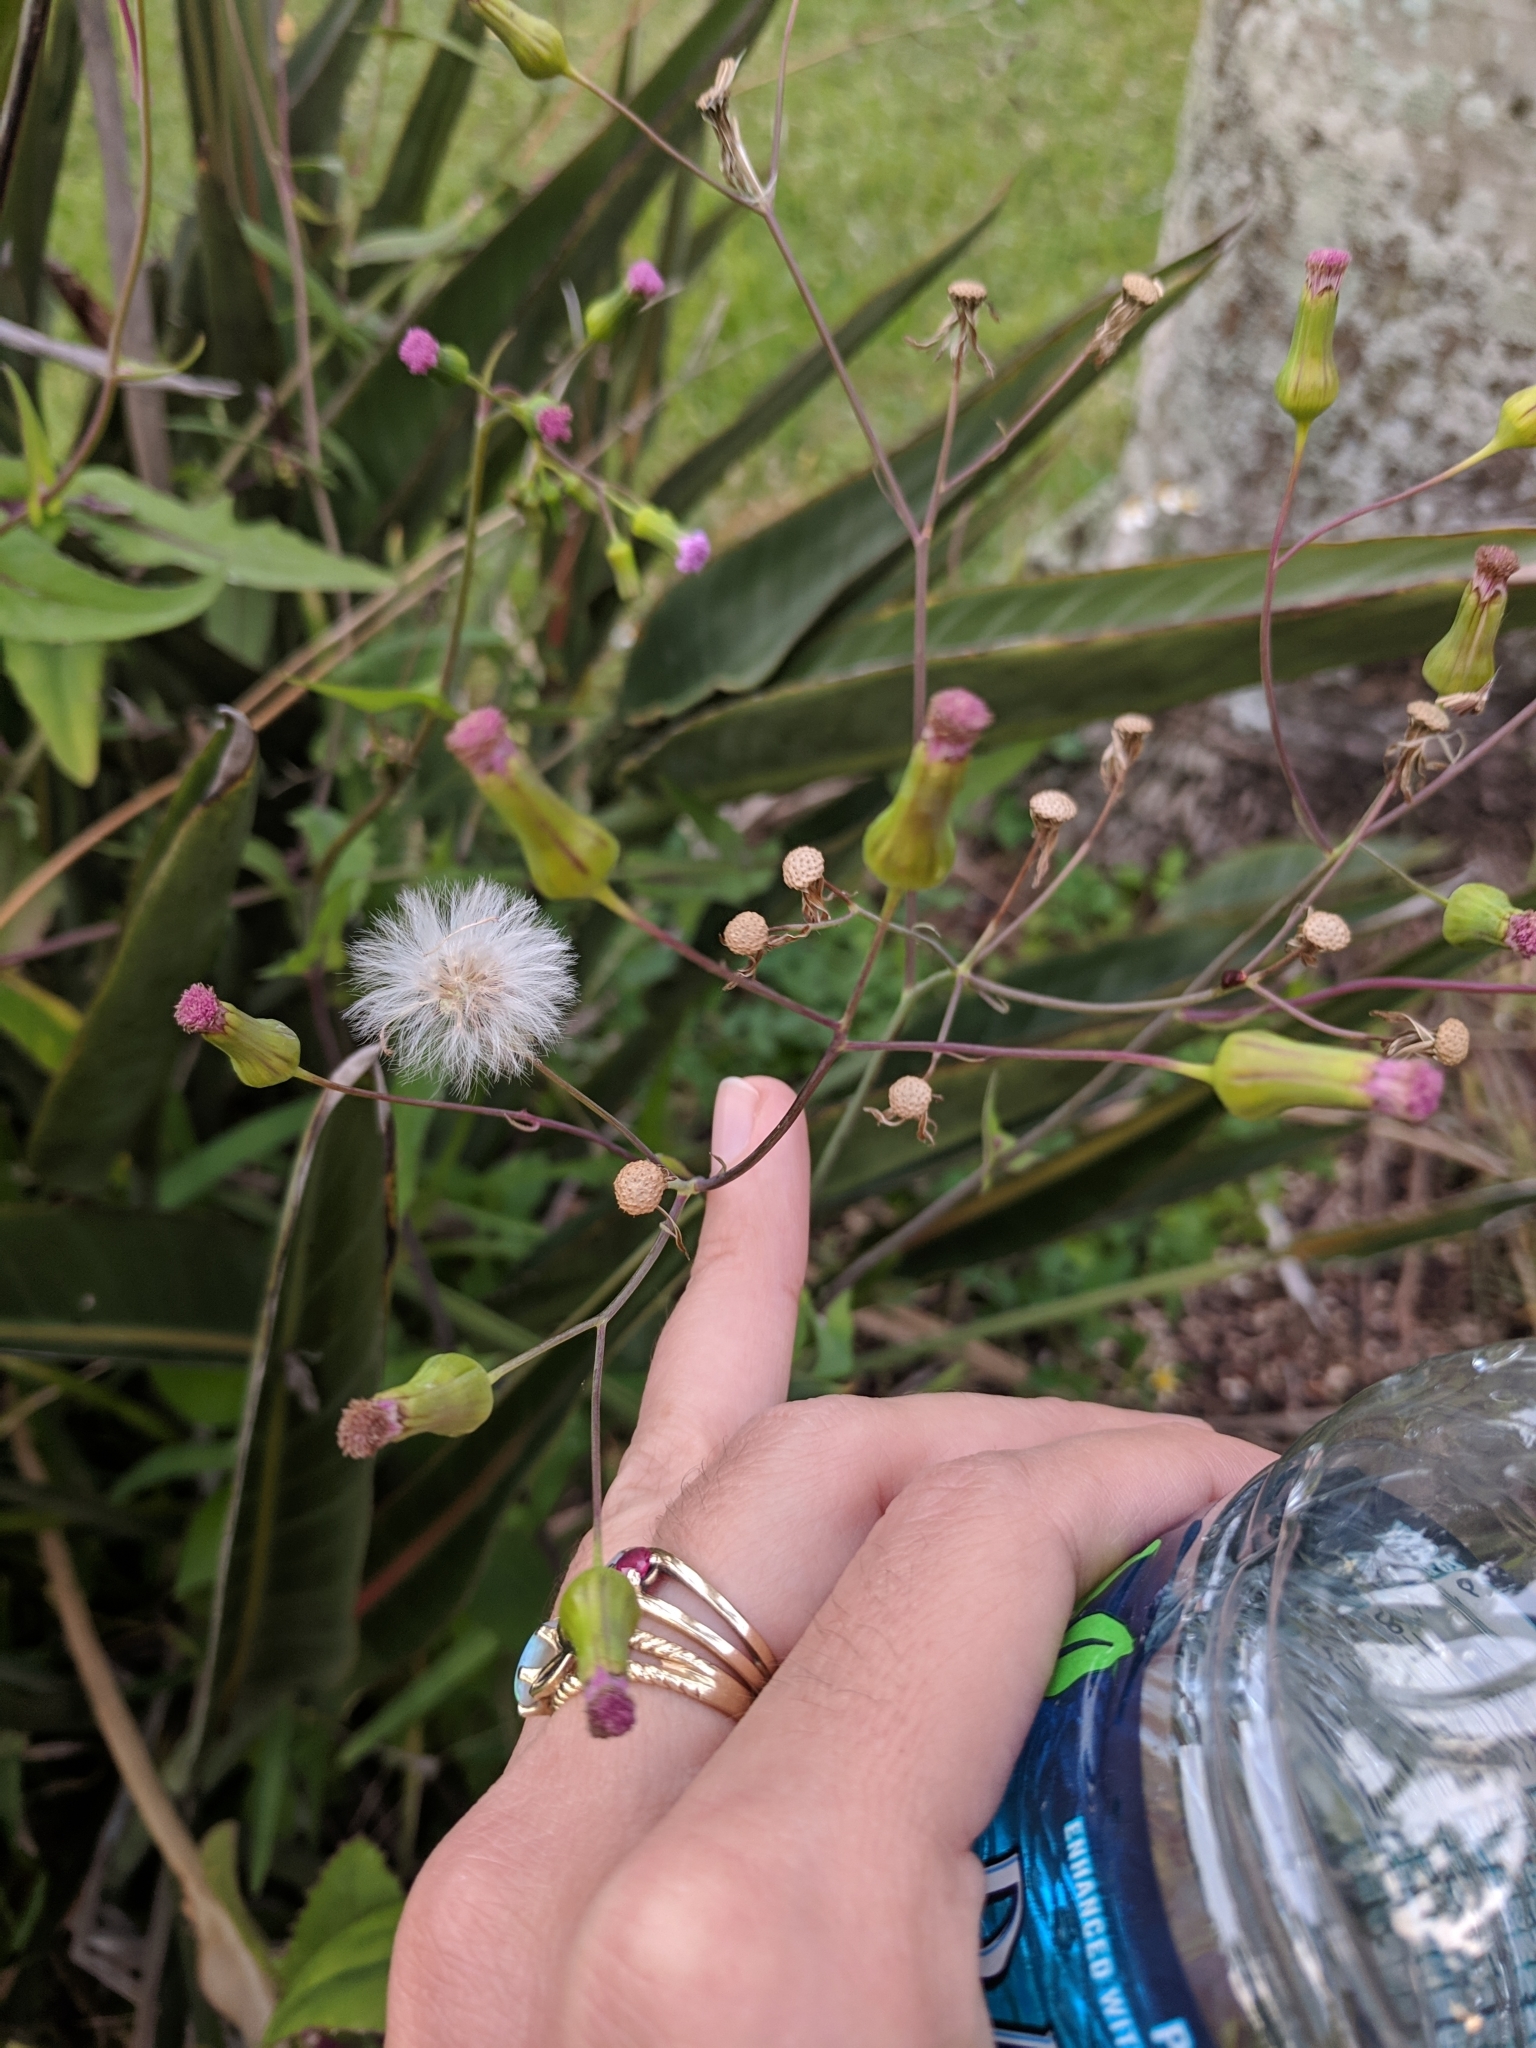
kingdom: Plantae
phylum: Tracheophyta
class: Magnoliopsida
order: Asterales
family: Asteraceae
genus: Emilia
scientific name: Emilia sonchifolia
